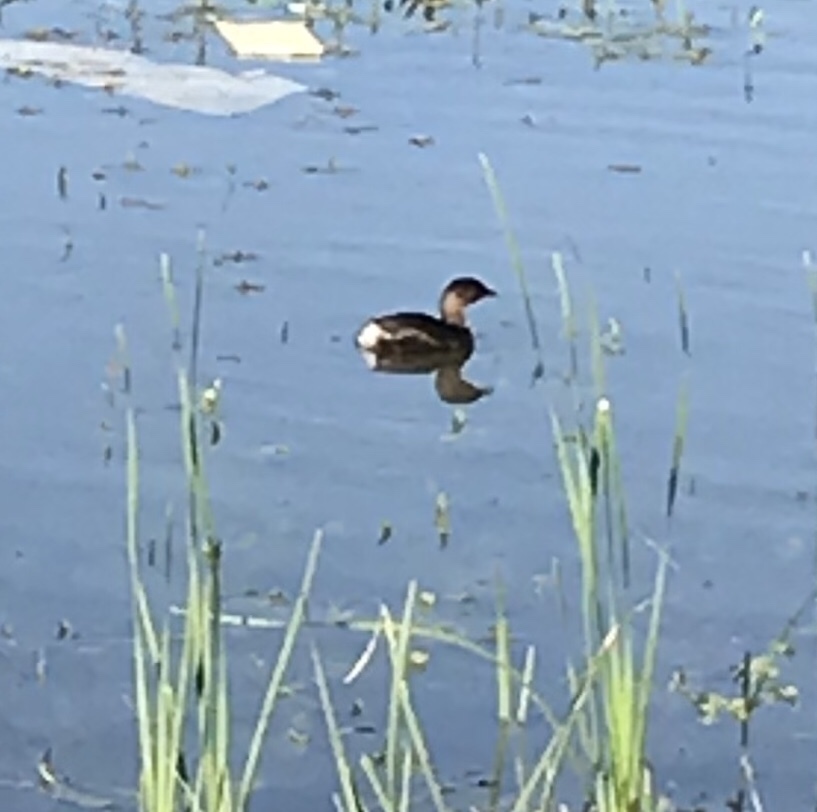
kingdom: Animalia
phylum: Chordata
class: Aves
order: Podicipediformes
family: Podicipedidae
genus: Podilymbus
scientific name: Podilymbus podiceps
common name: Pied-billed grebe
